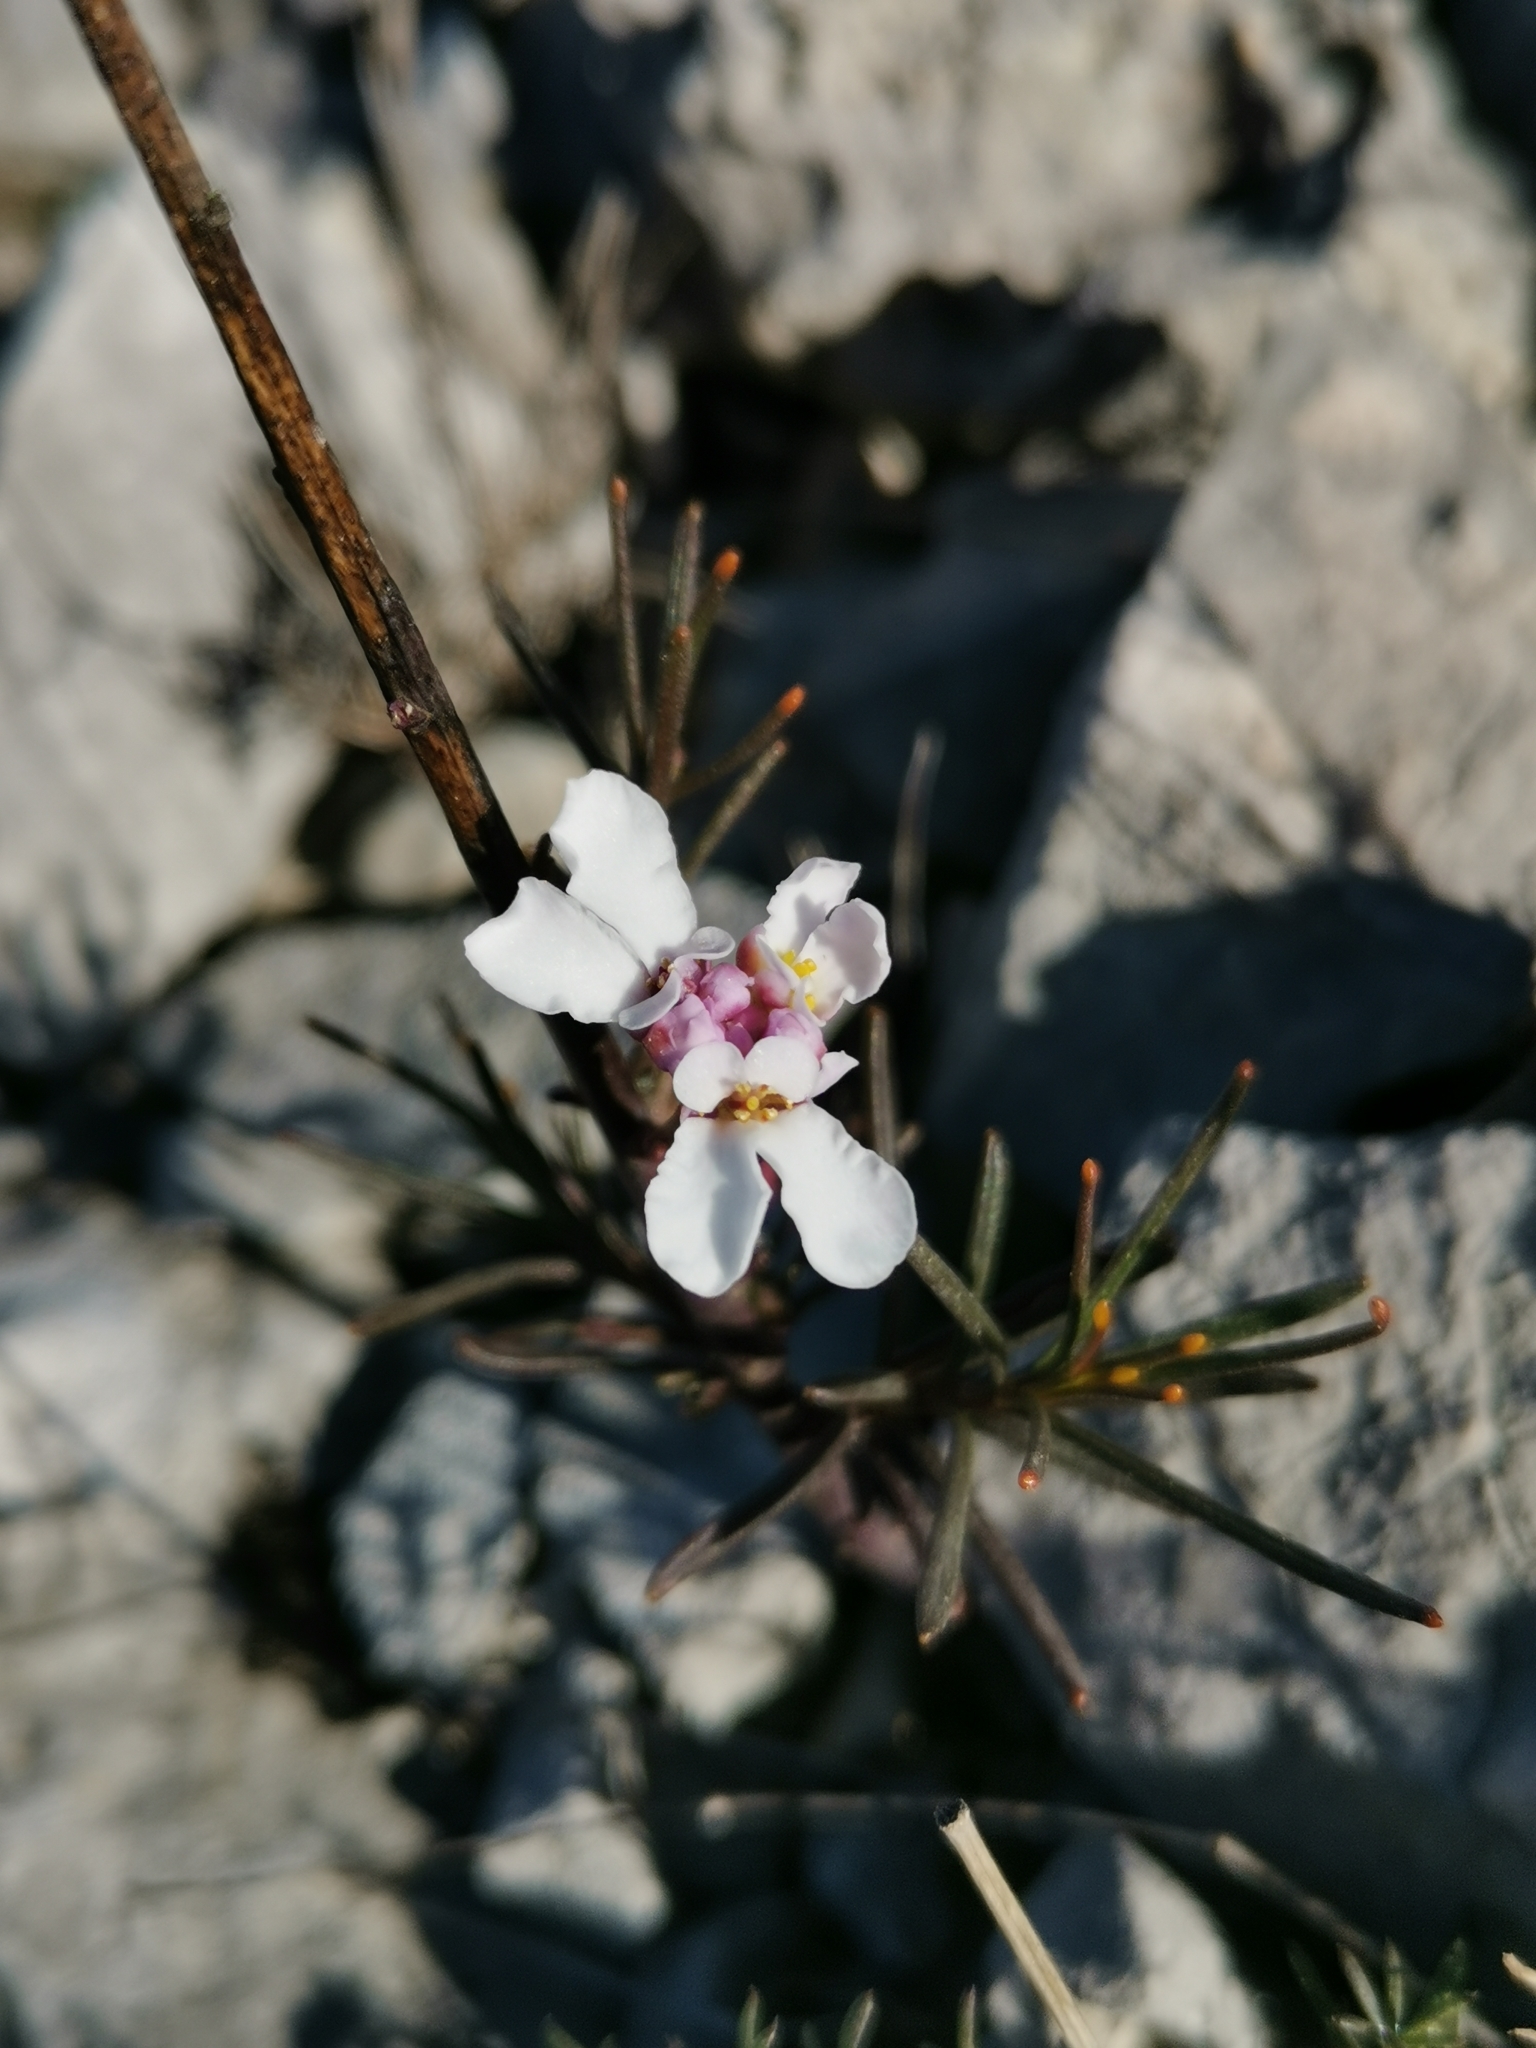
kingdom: Plantae
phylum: Tracheophyta
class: Magnoliopsida
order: Brassicales
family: Brassicaceae
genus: Iberis
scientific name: Iberis linifolia
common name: Candytuft
